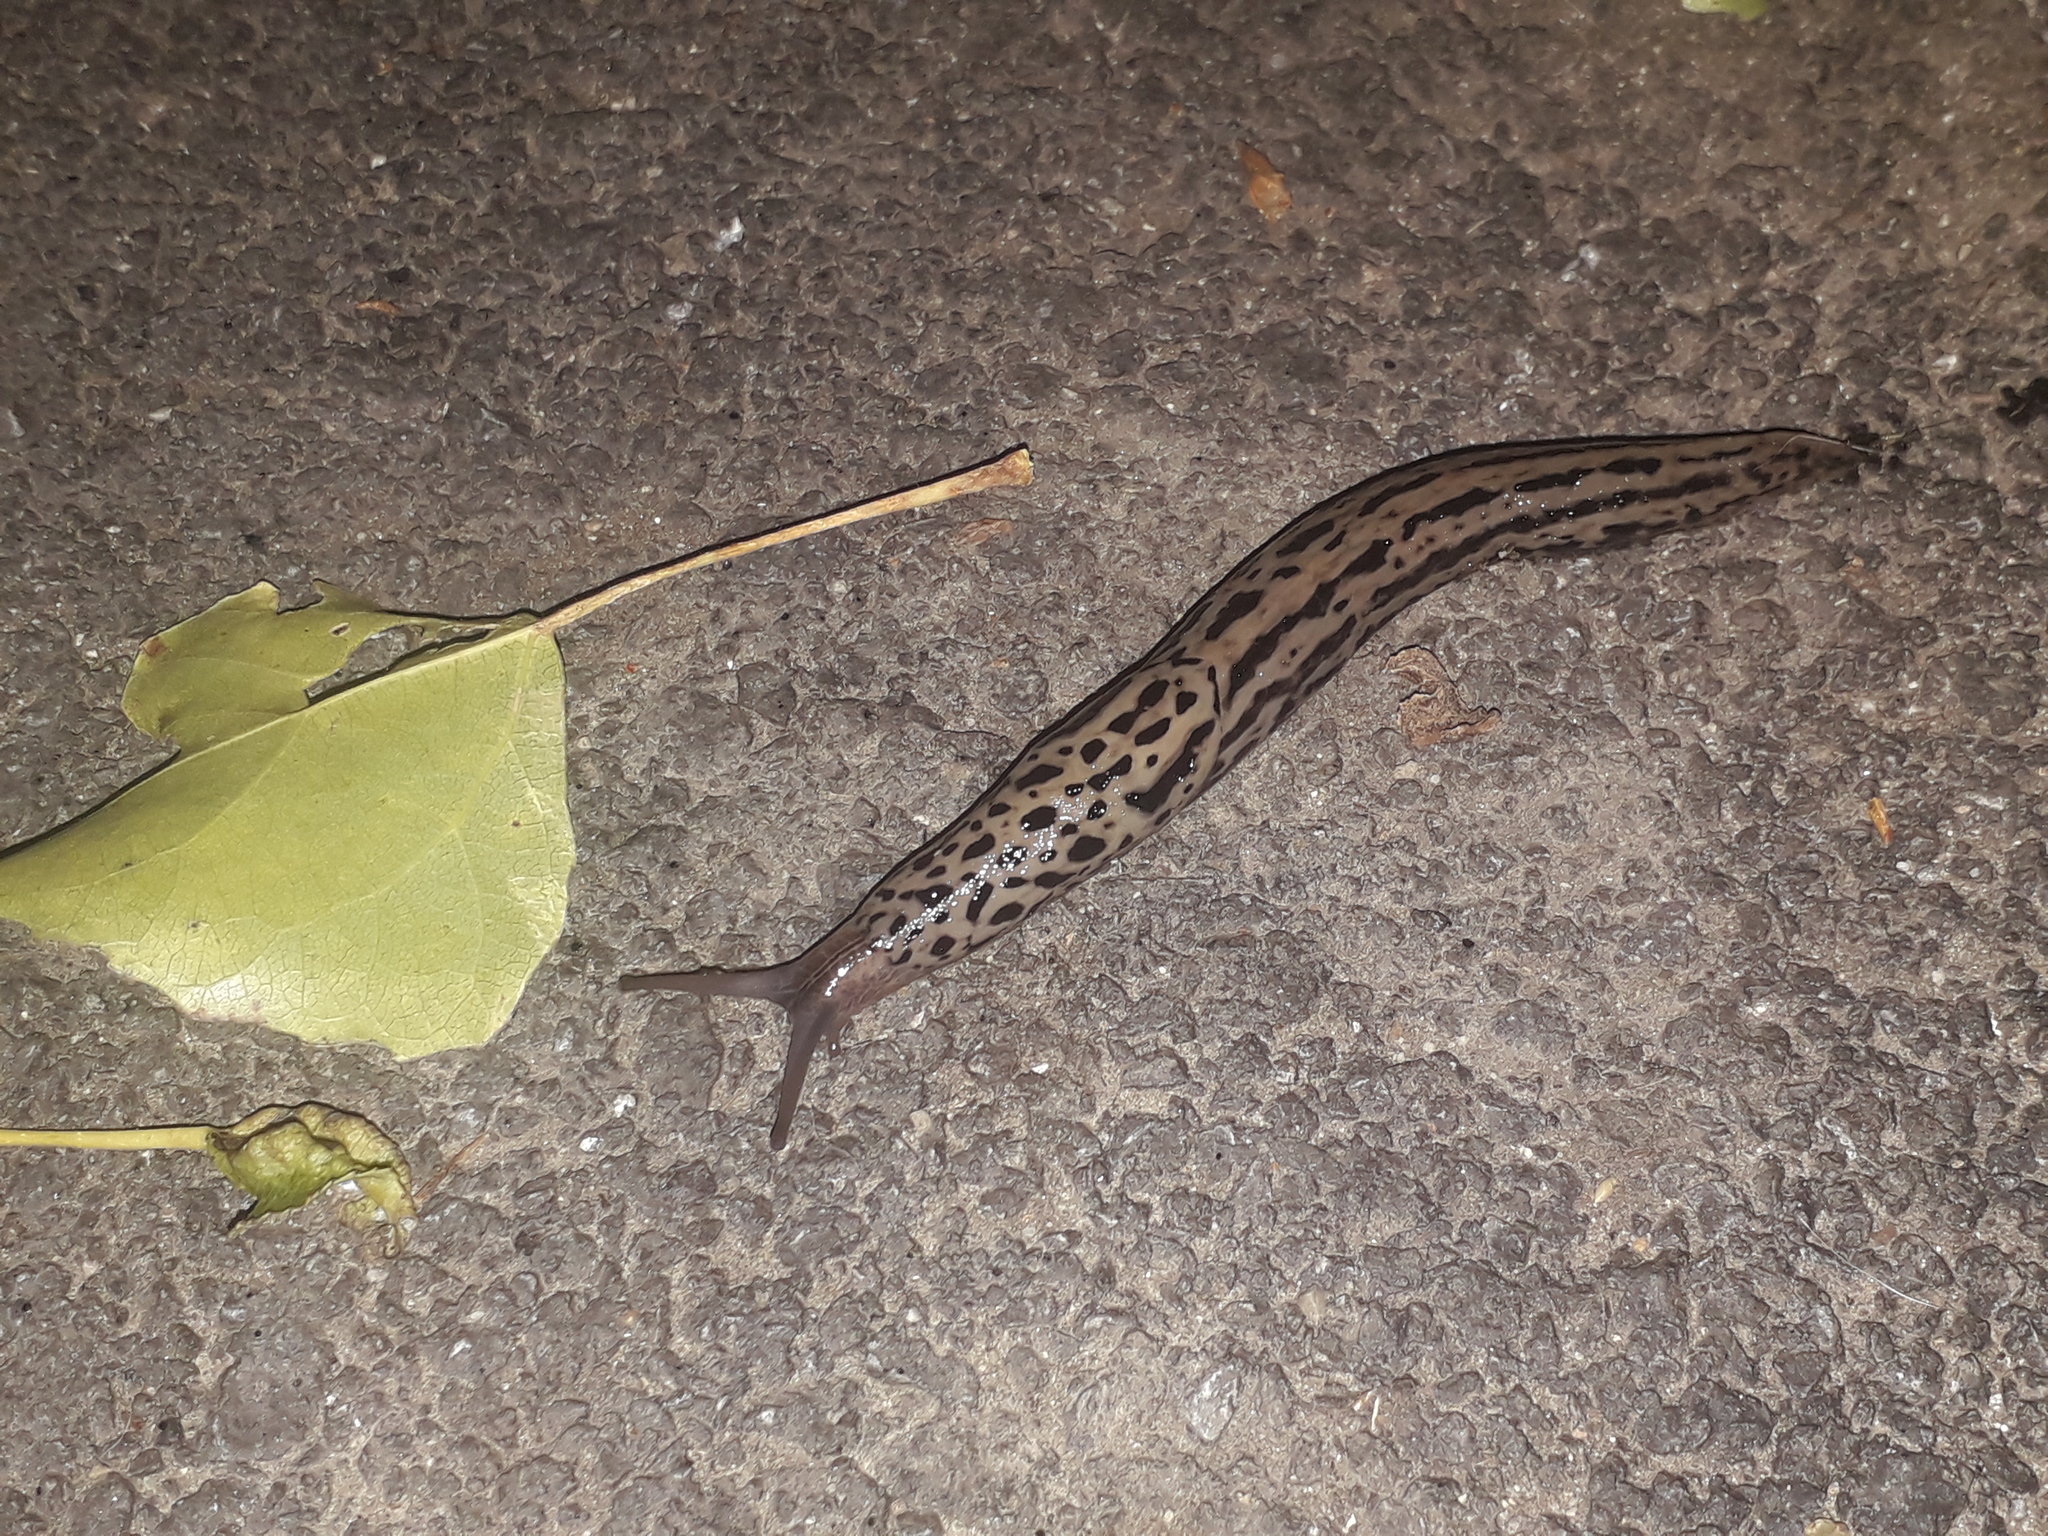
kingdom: Animalia
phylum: Mollusca
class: Gastropoda
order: Stylommatophora
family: Limacidae
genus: Limax
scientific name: Limax maximus
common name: Great grey slug
